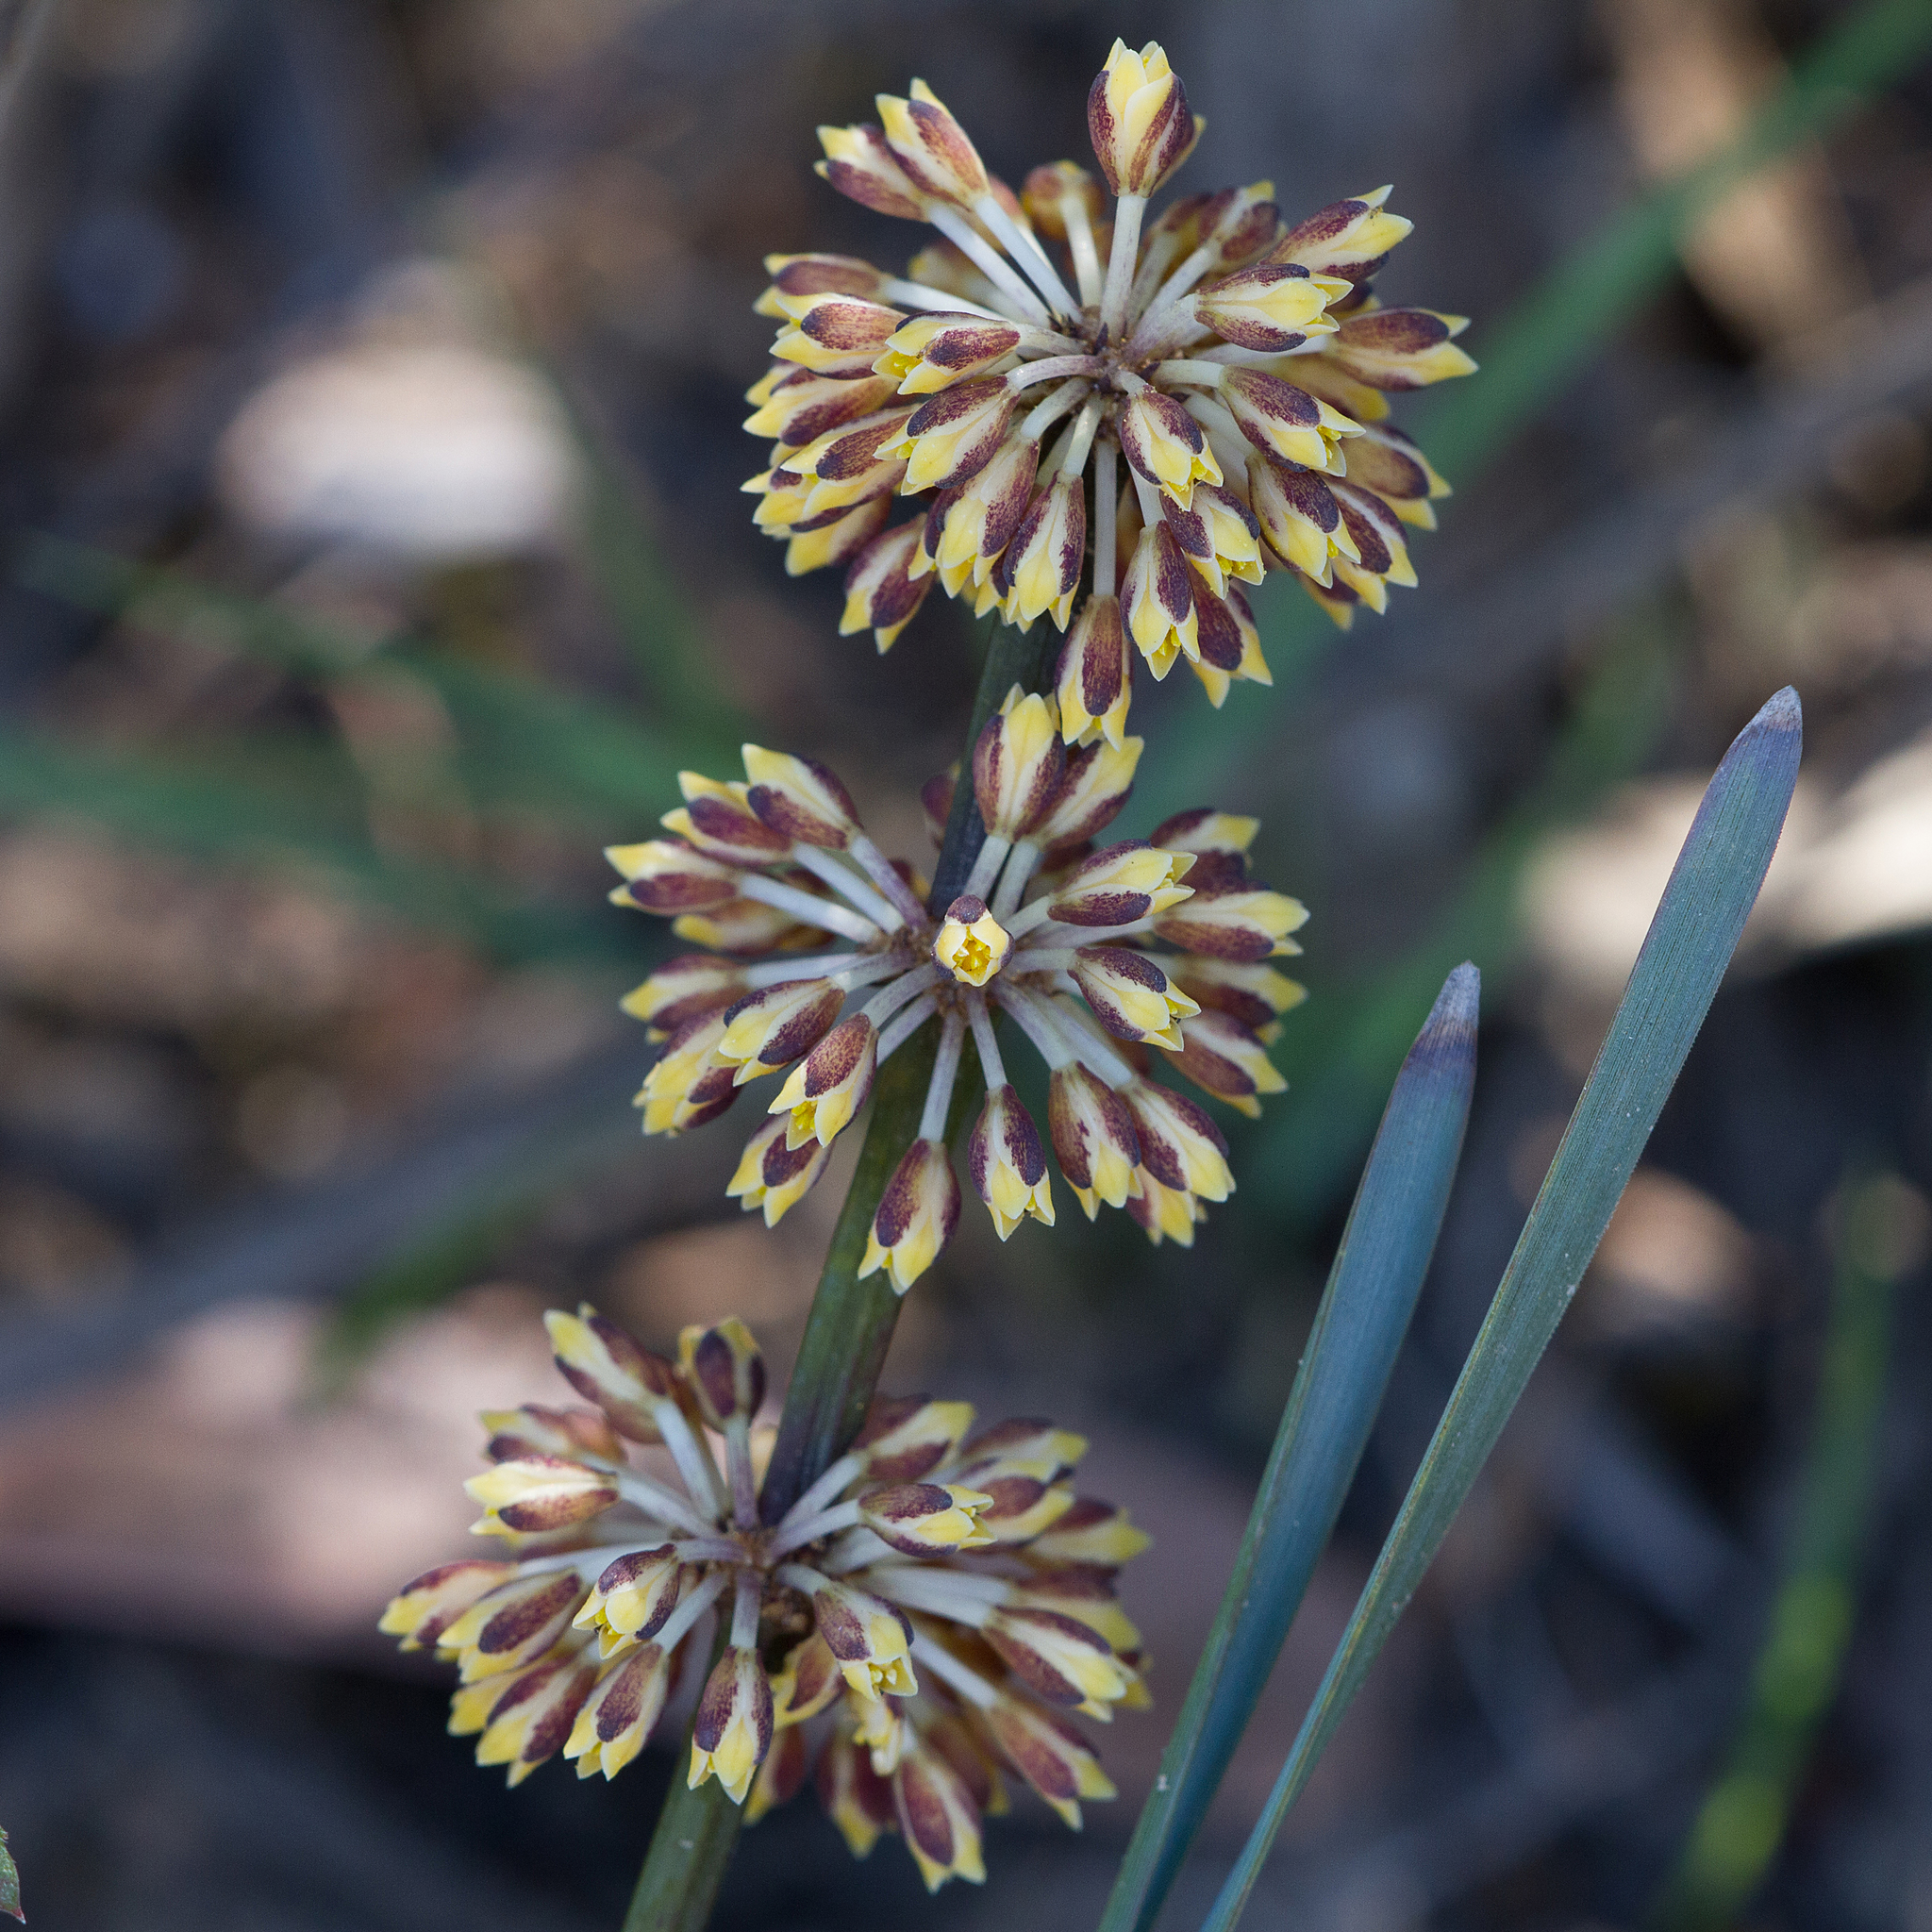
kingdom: Plantae
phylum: Tracheophyta
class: Liliopsida
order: Asparagales
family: Asparagaceae
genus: Lomandra
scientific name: Lomandra multiflora
